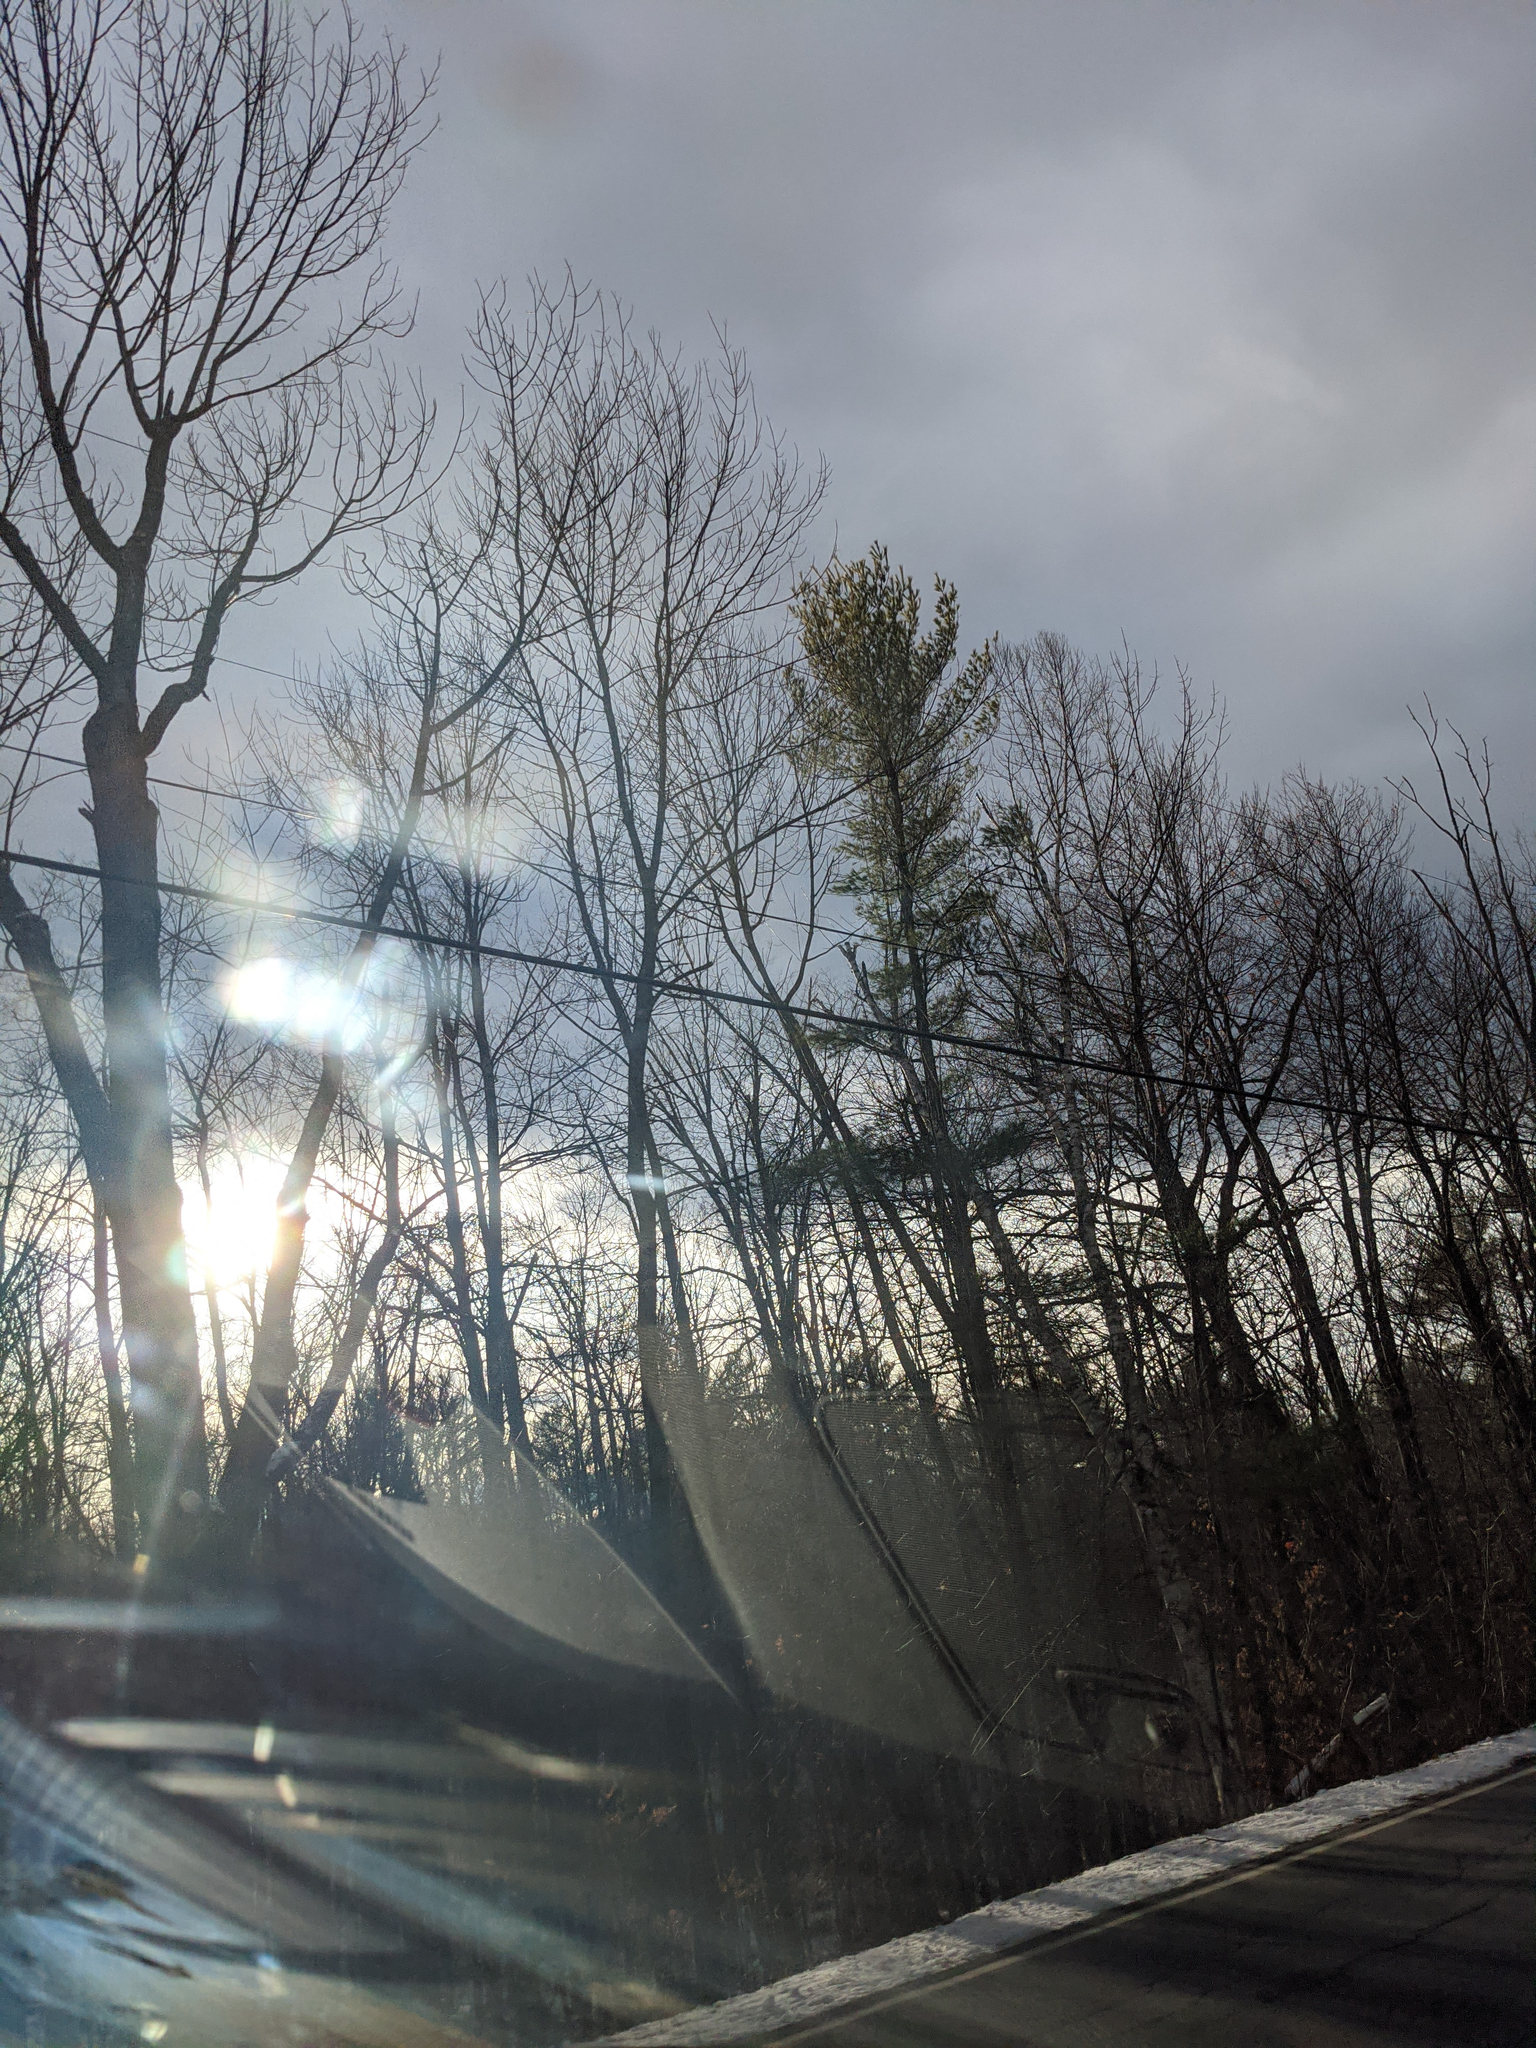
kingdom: Plantae
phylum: Tracheophyta
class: Pinopsida
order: Pinales
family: Pinaceae
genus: Pinus
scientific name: Pinus strobus
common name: Weymouth pine
